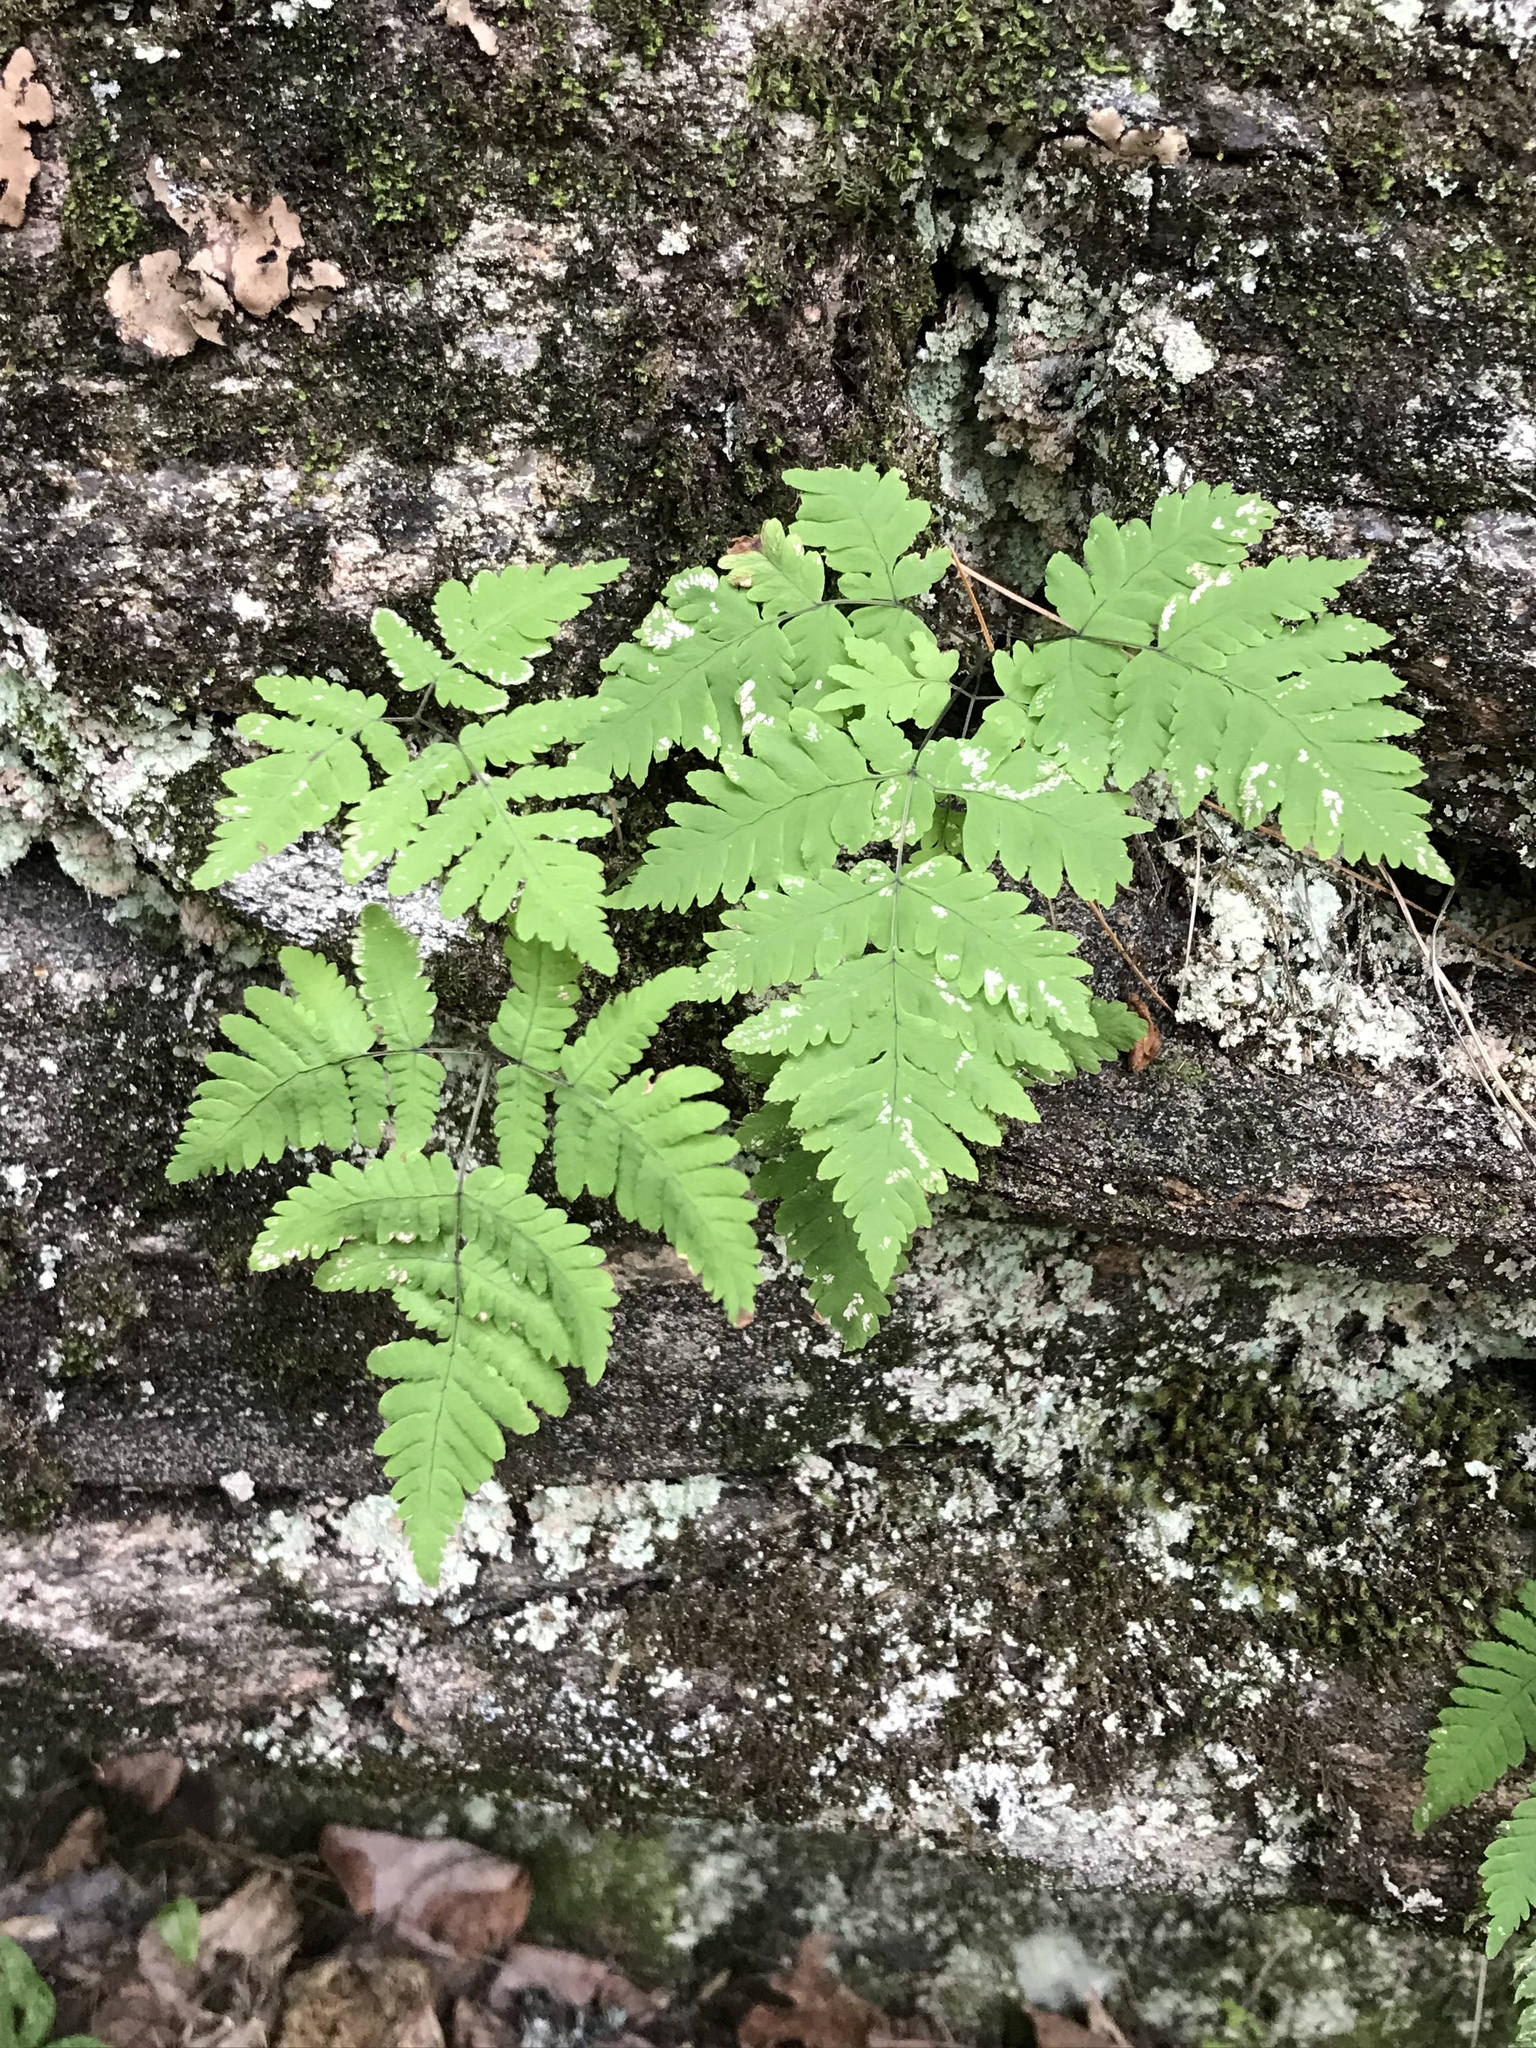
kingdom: Plantae
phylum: Tracheophyta
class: Polypodiopsida
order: Polypodiales
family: Cystopteridaceae
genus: Gymnocarpium
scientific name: Gymnocarpium dryopteris
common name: Oak fern
